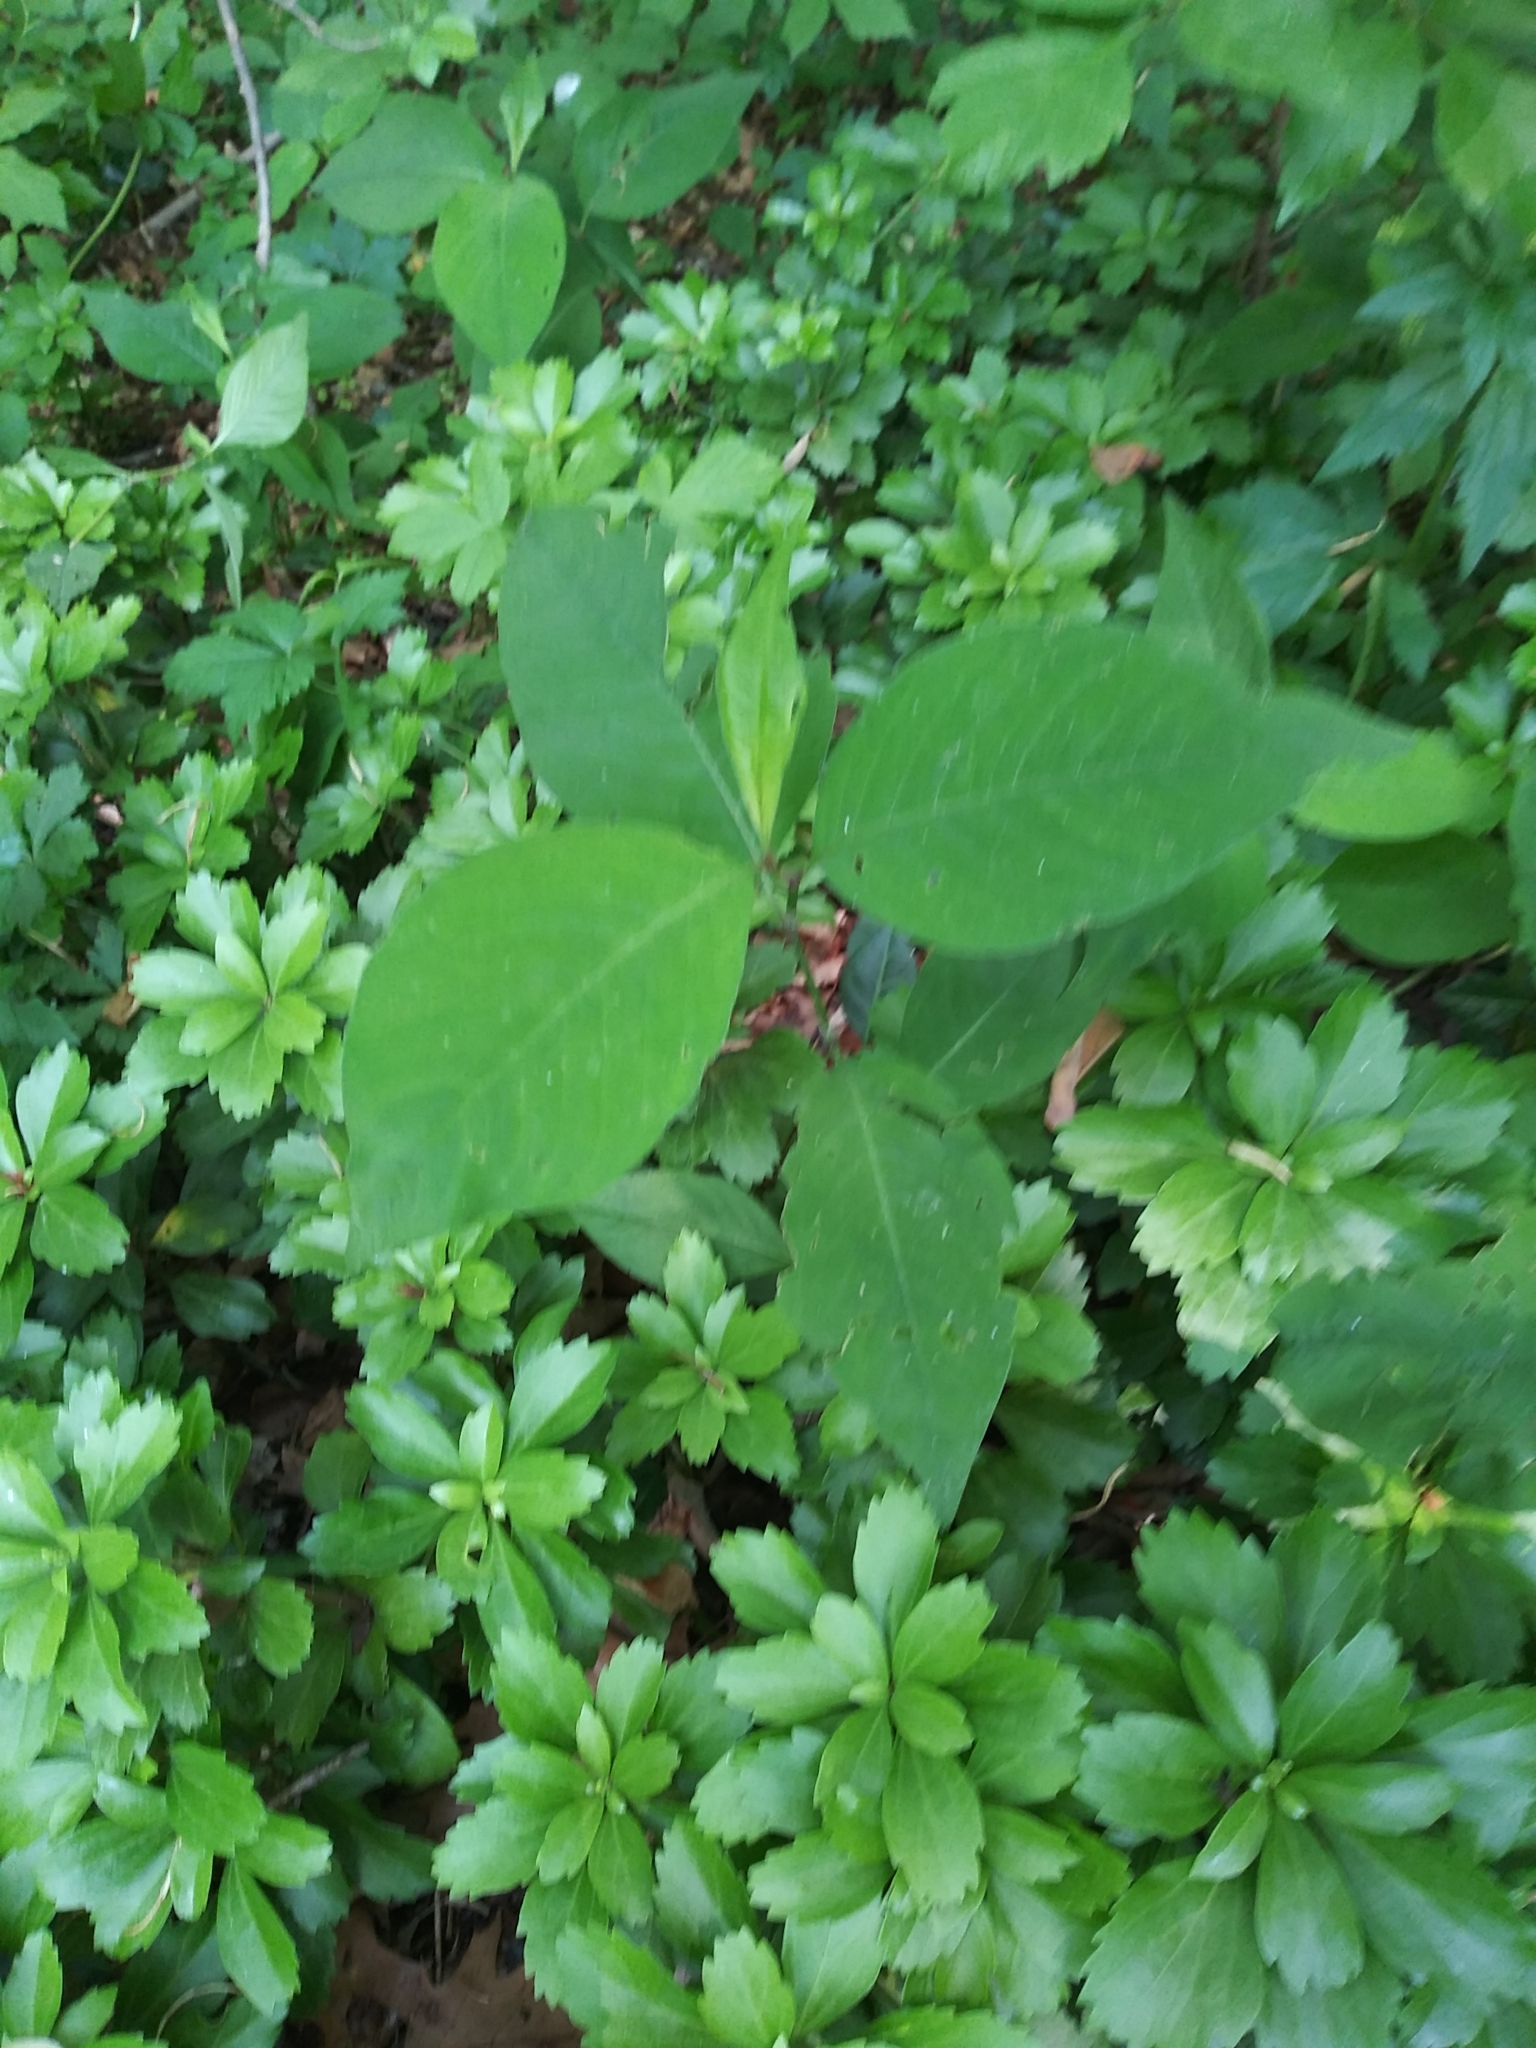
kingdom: Plantae
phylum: Tracheophyta
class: Magnoliopsida
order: Caryophyllales
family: Polygonaceae
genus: Persicaria
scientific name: Persicaria virginiana
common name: Jumpseed
